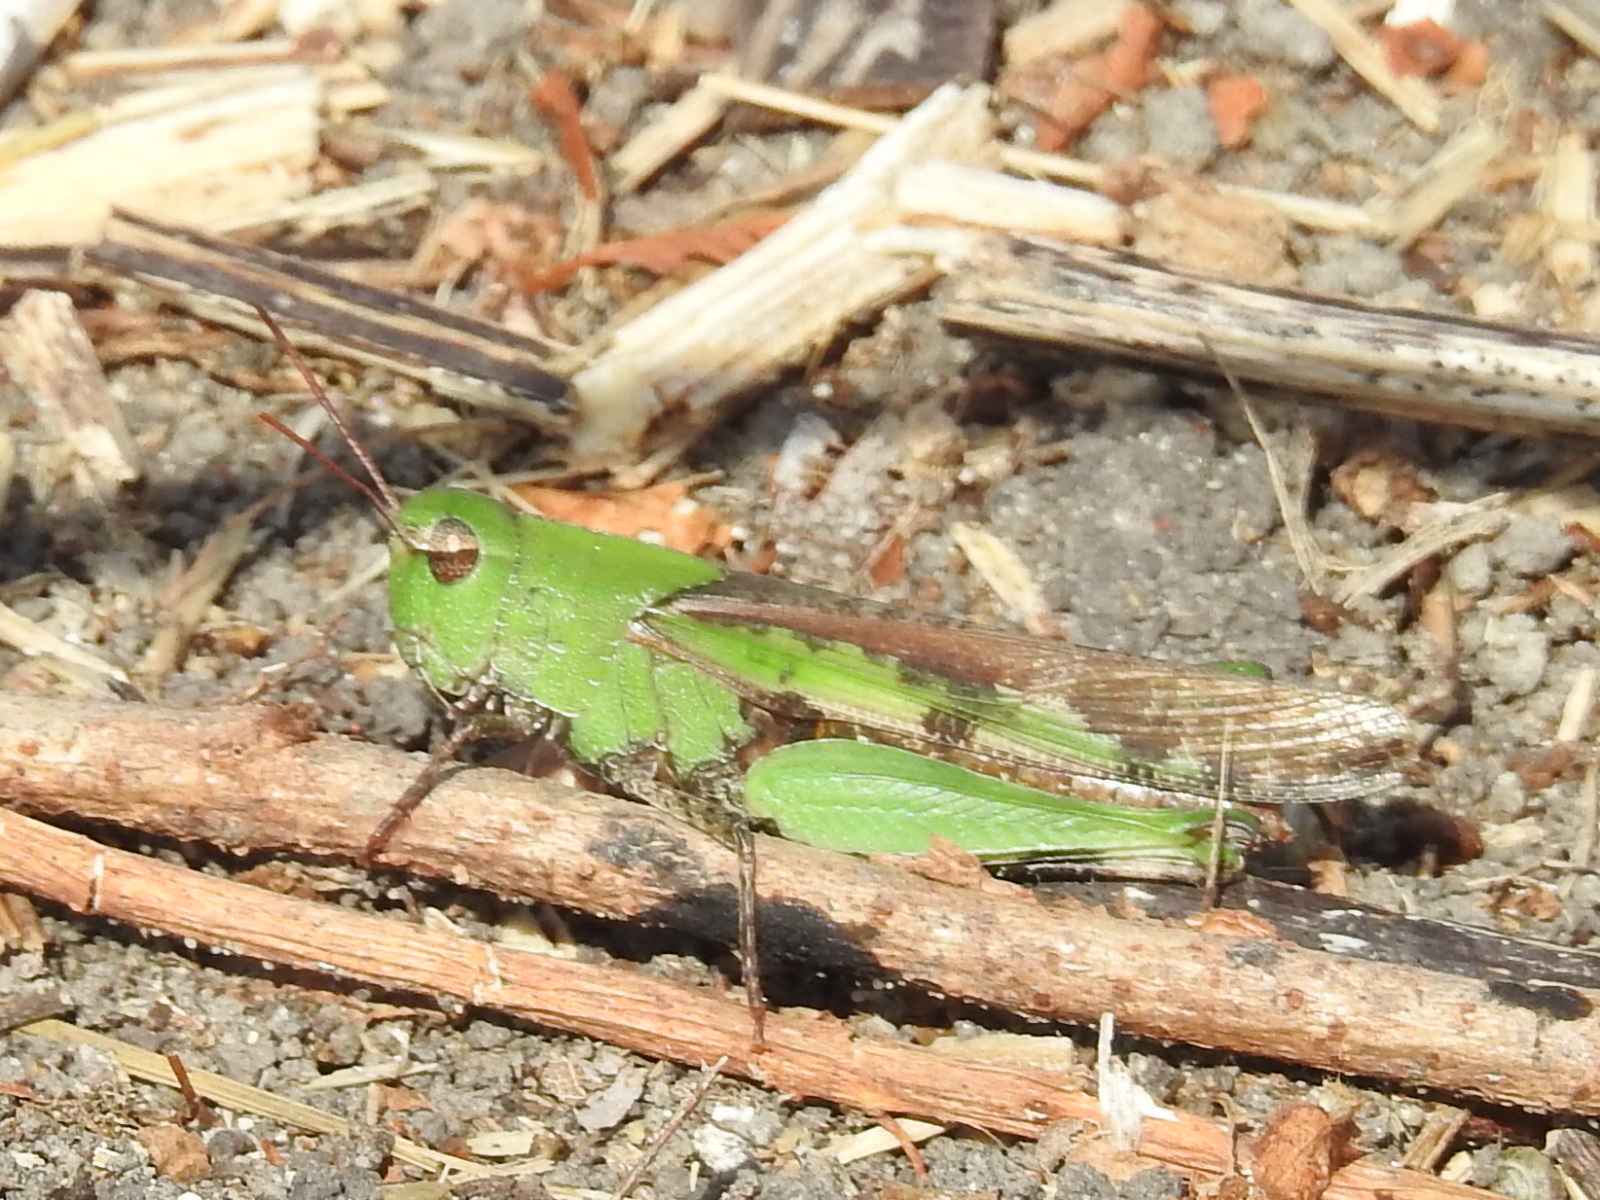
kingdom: Animalia
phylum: Arthropoda
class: Insecta
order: Orthoptera
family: Acrididae
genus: Chortophaga
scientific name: Chortophaga viridifasciata
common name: Green-striped grasshopper
